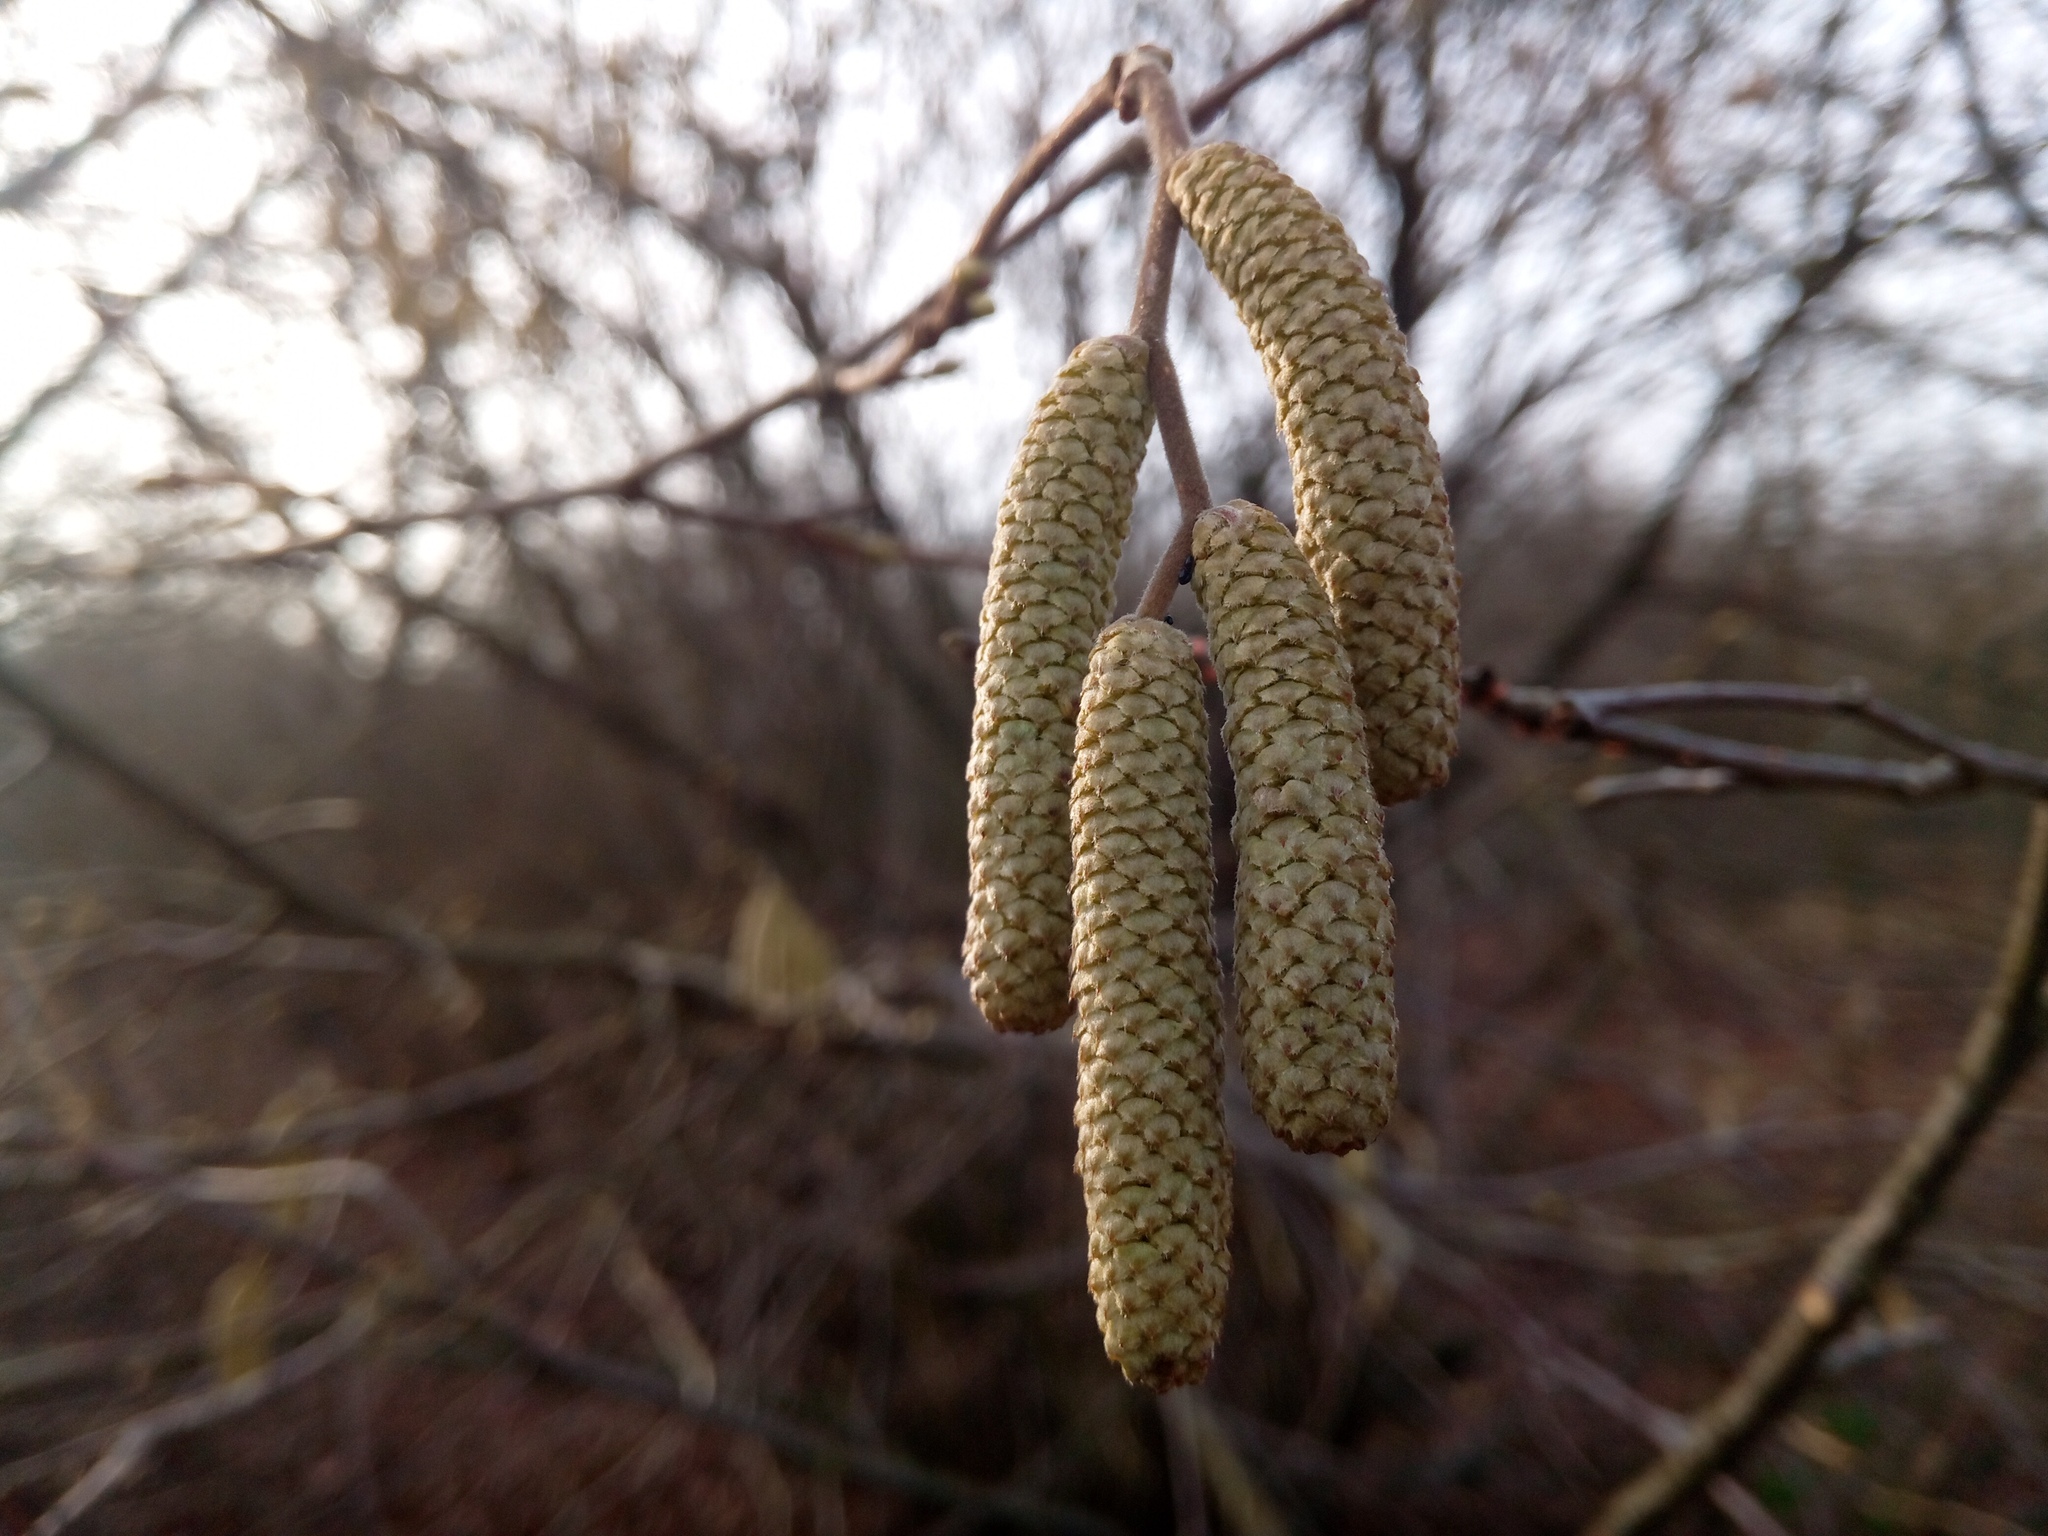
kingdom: Plantae
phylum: Tracheophyta
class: Magnoliopsida
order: Fagales
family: Betulaceae
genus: Corylus
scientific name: Corylus avellana
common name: European hazel
